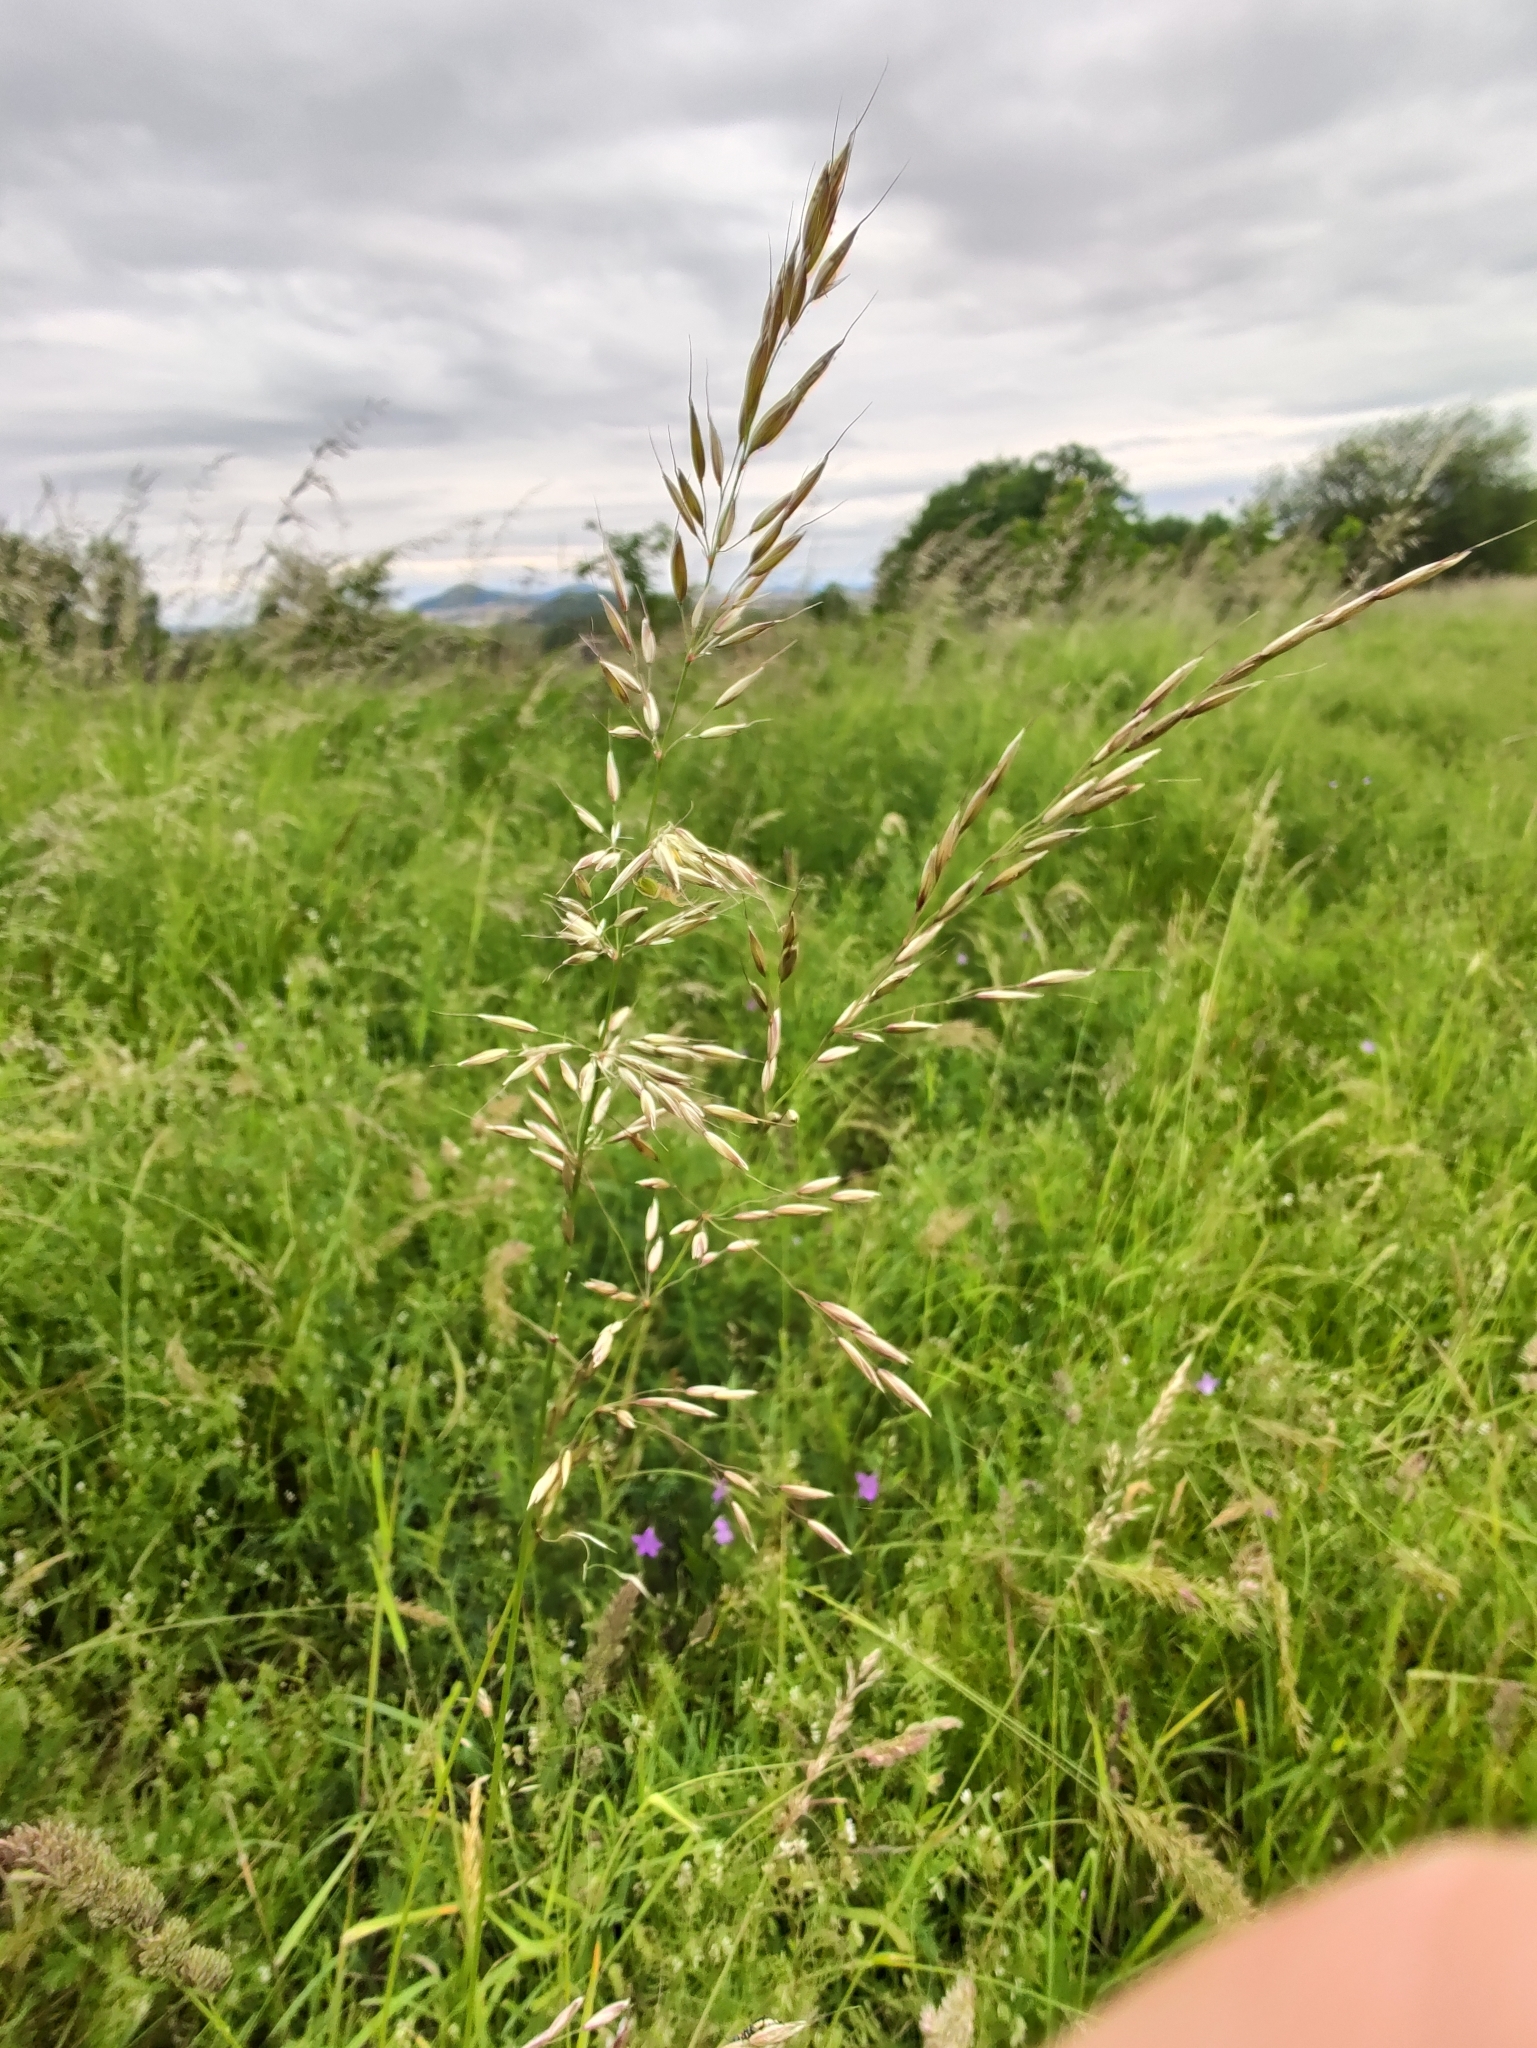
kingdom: Plantae
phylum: Tracheophyta
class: Liliopsida
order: Poales
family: Poaceae
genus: Arrhenatherum
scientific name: Arrhenatherum elatius
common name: Tall oatgrass
